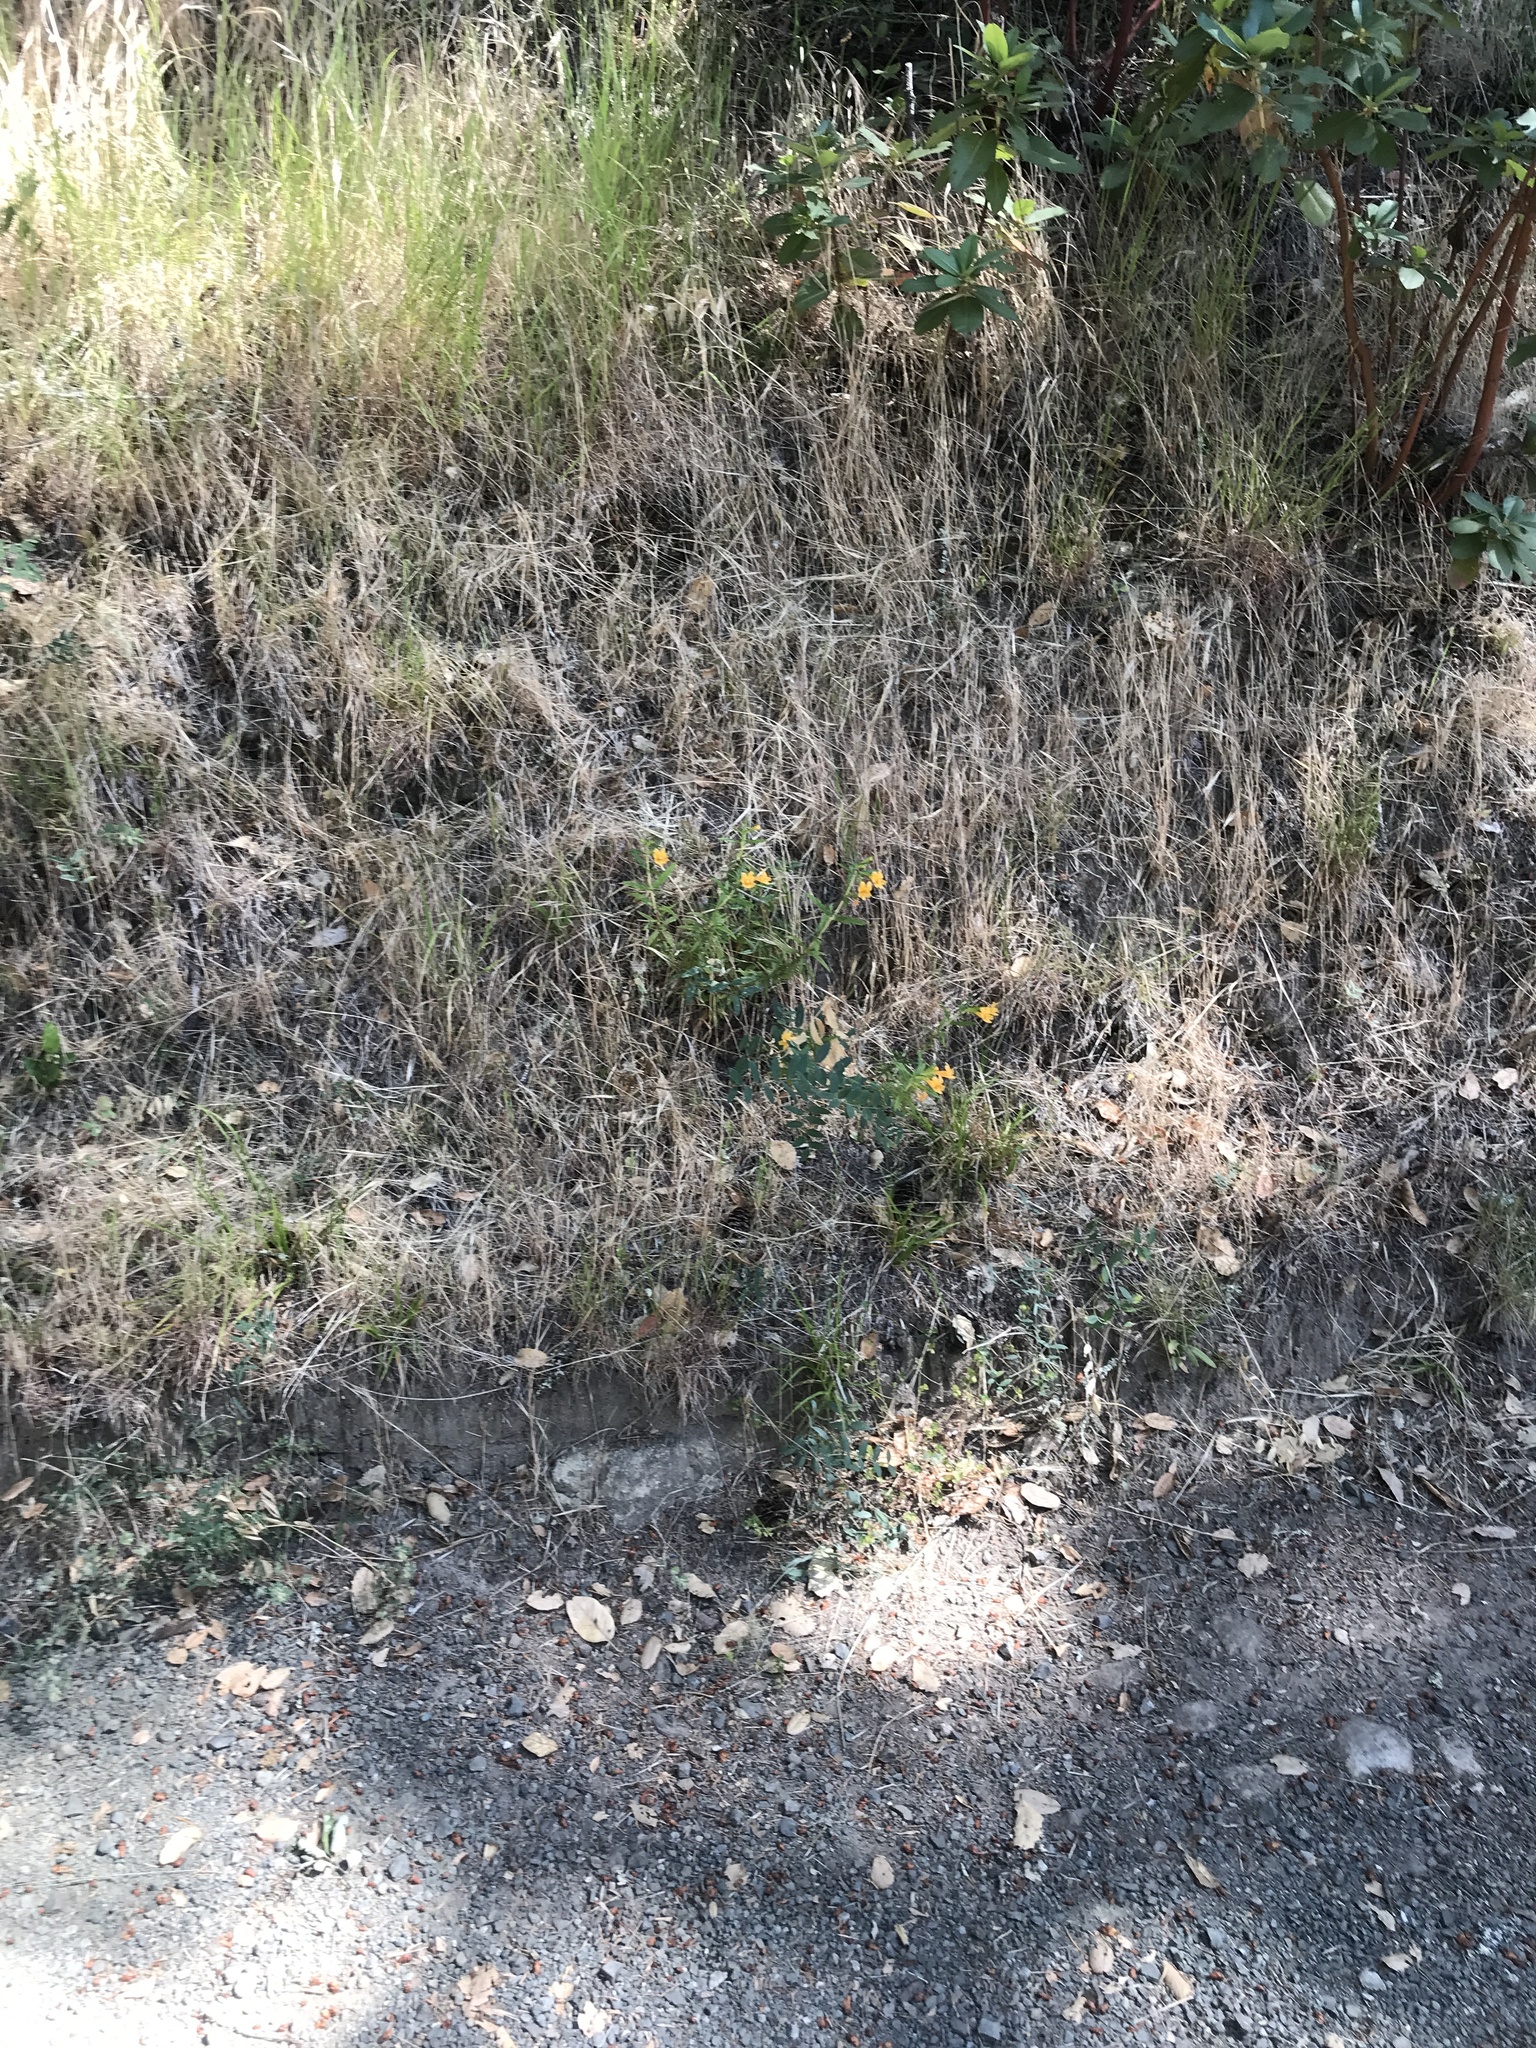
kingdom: Plantae
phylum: Tracheophyta
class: Magnoliopsida
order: Lamiales
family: Phrymaceae
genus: Diplacus
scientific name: Diplacus aurantiacus
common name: Bush monkey-flower
